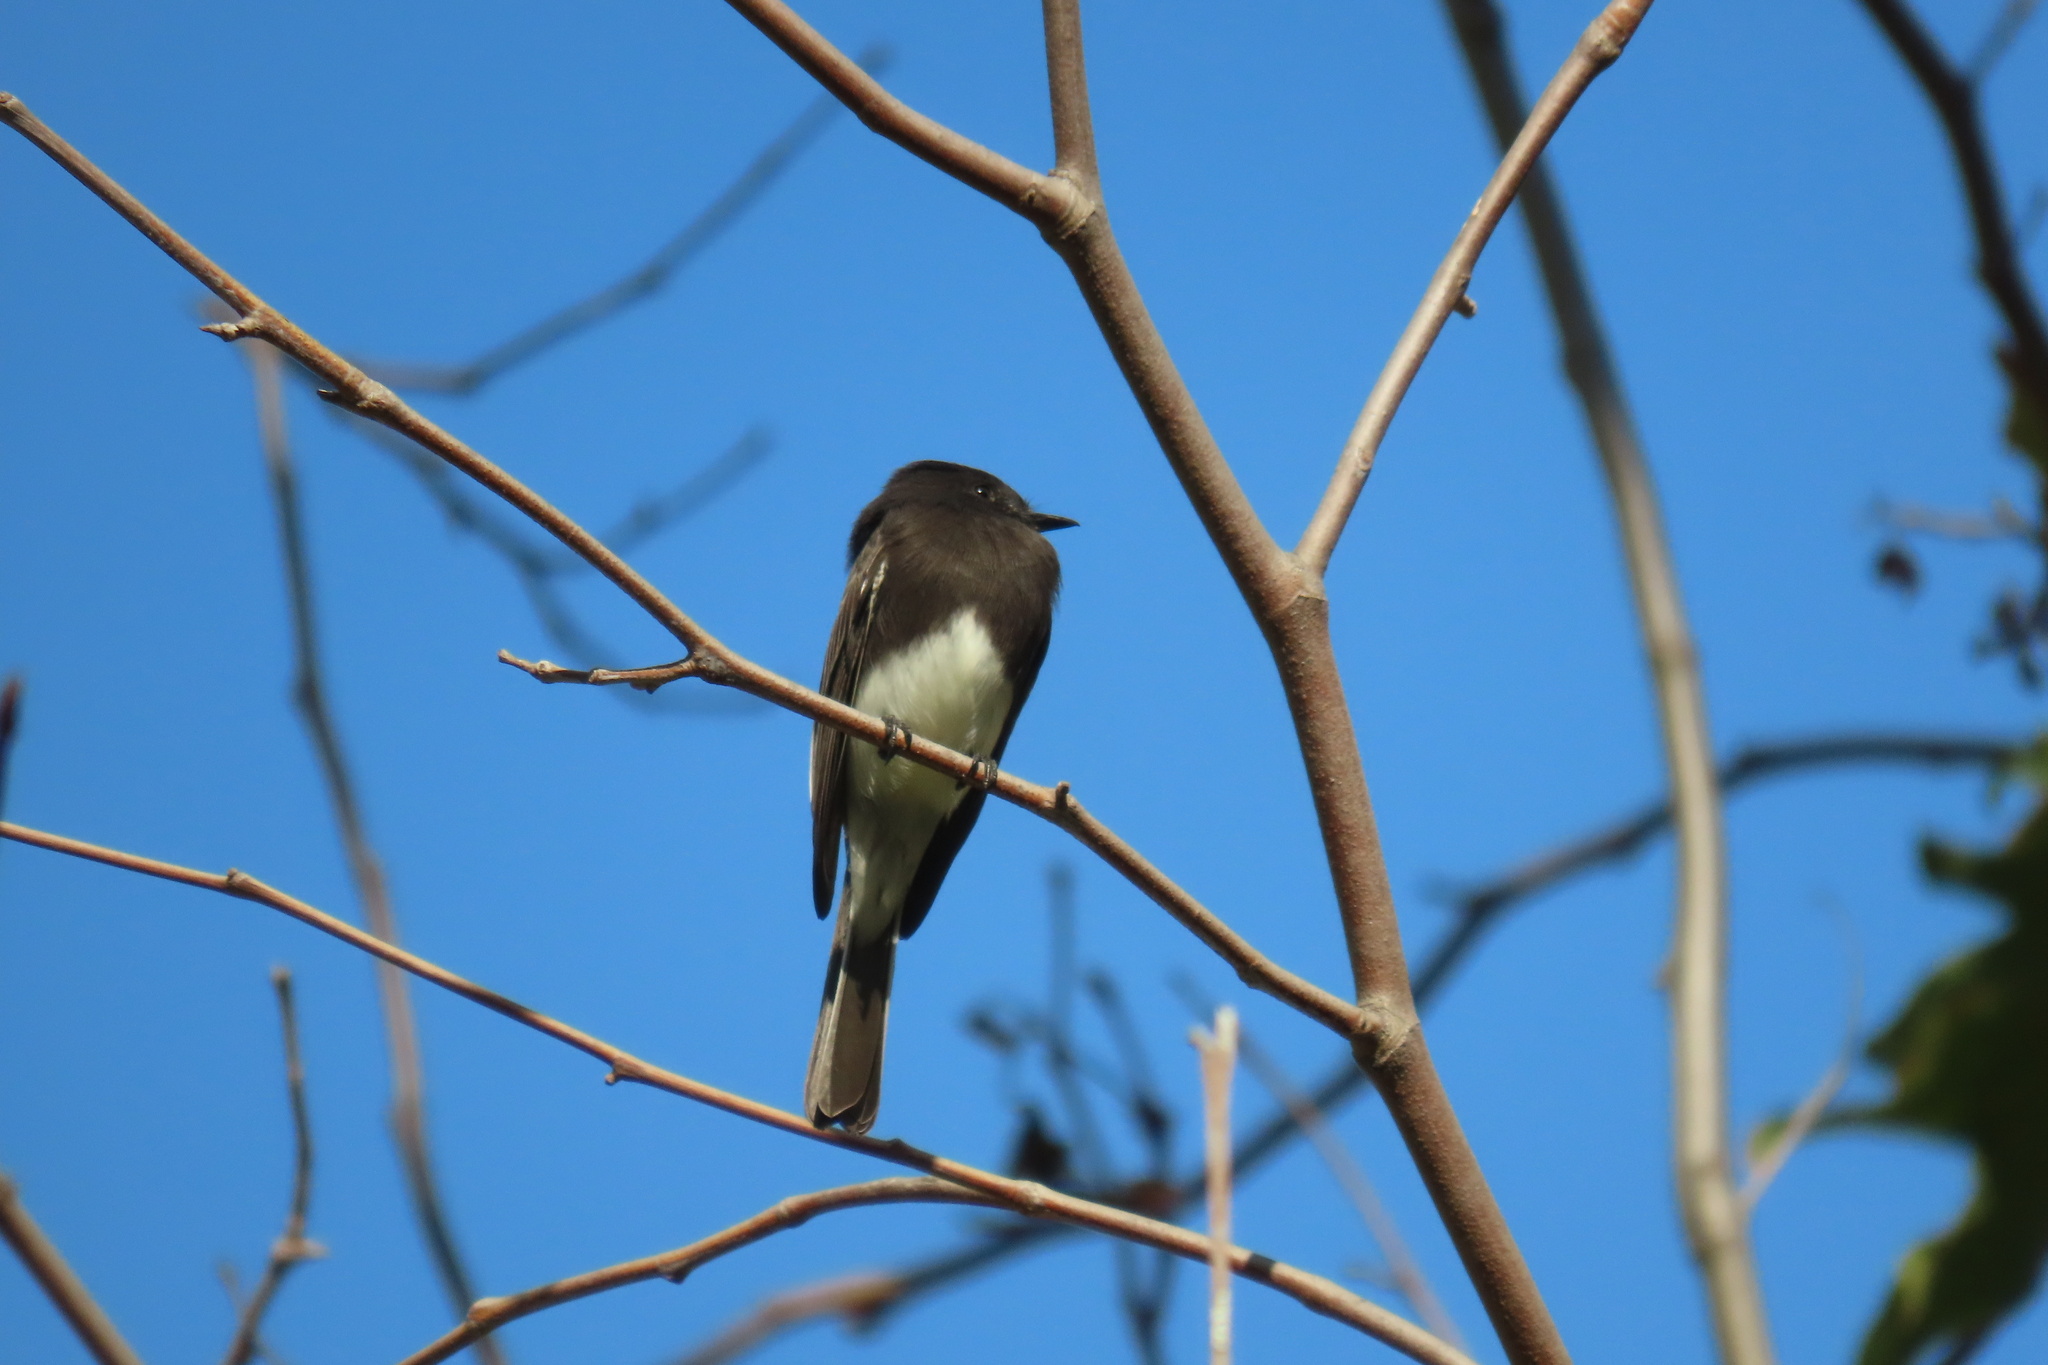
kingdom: Animalia
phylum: Chordata
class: Aves
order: Passeriformes
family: Tyrannidae
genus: Sayornis
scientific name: Sayornis nigricans
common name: Black phoebe
